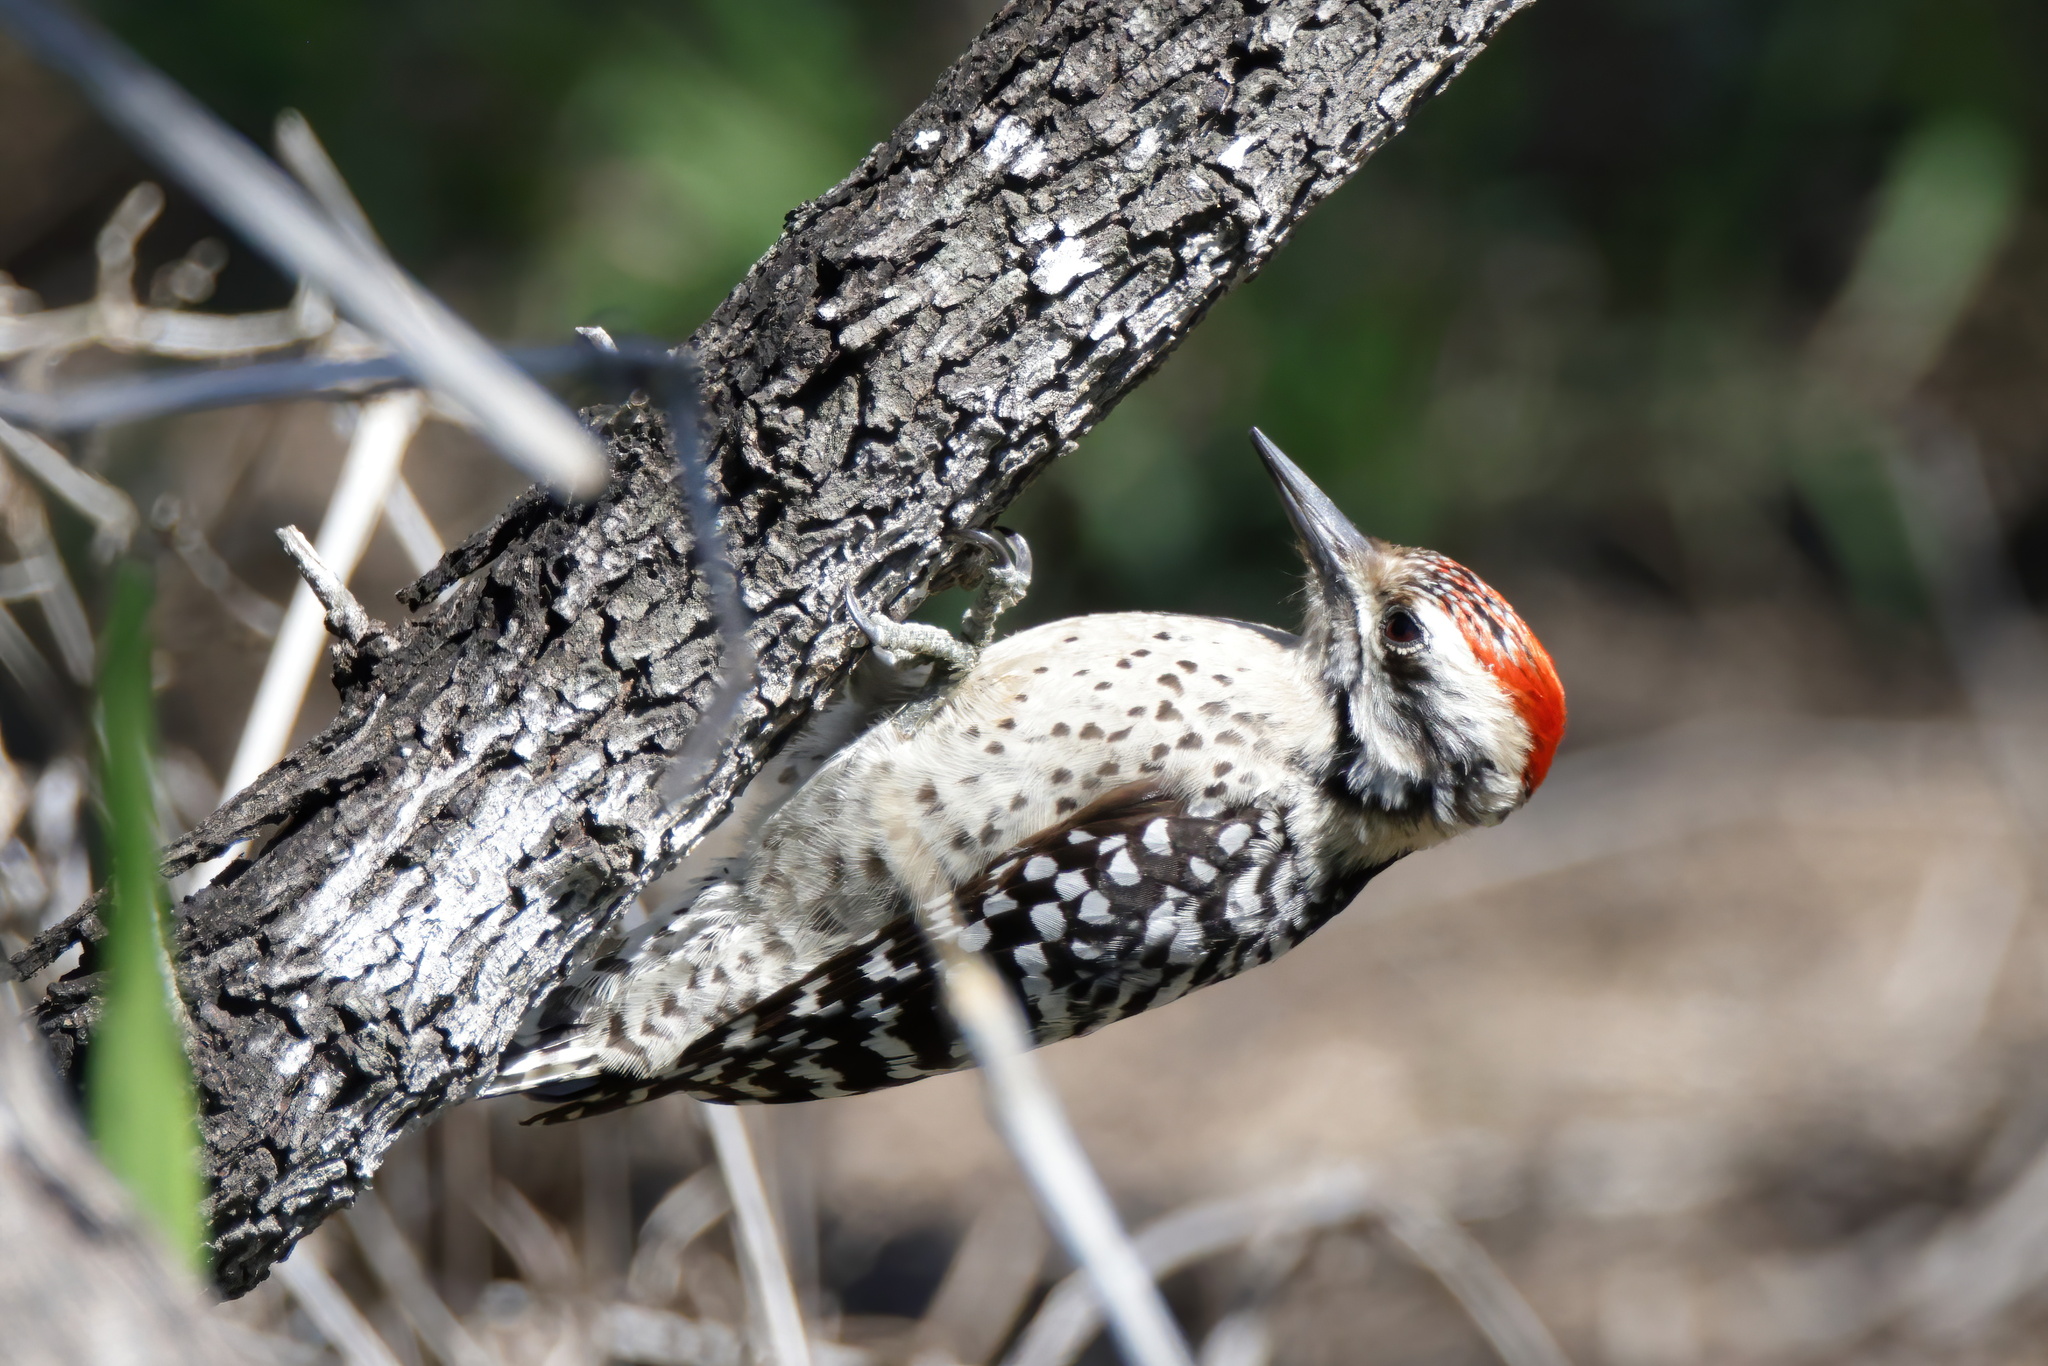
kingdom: Animalia
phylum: Chordata
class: Aves
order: Piciformes
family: Picidae
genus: Dryobates
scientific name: Dryobates scalaris
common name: Ladder-backed woodpecker
